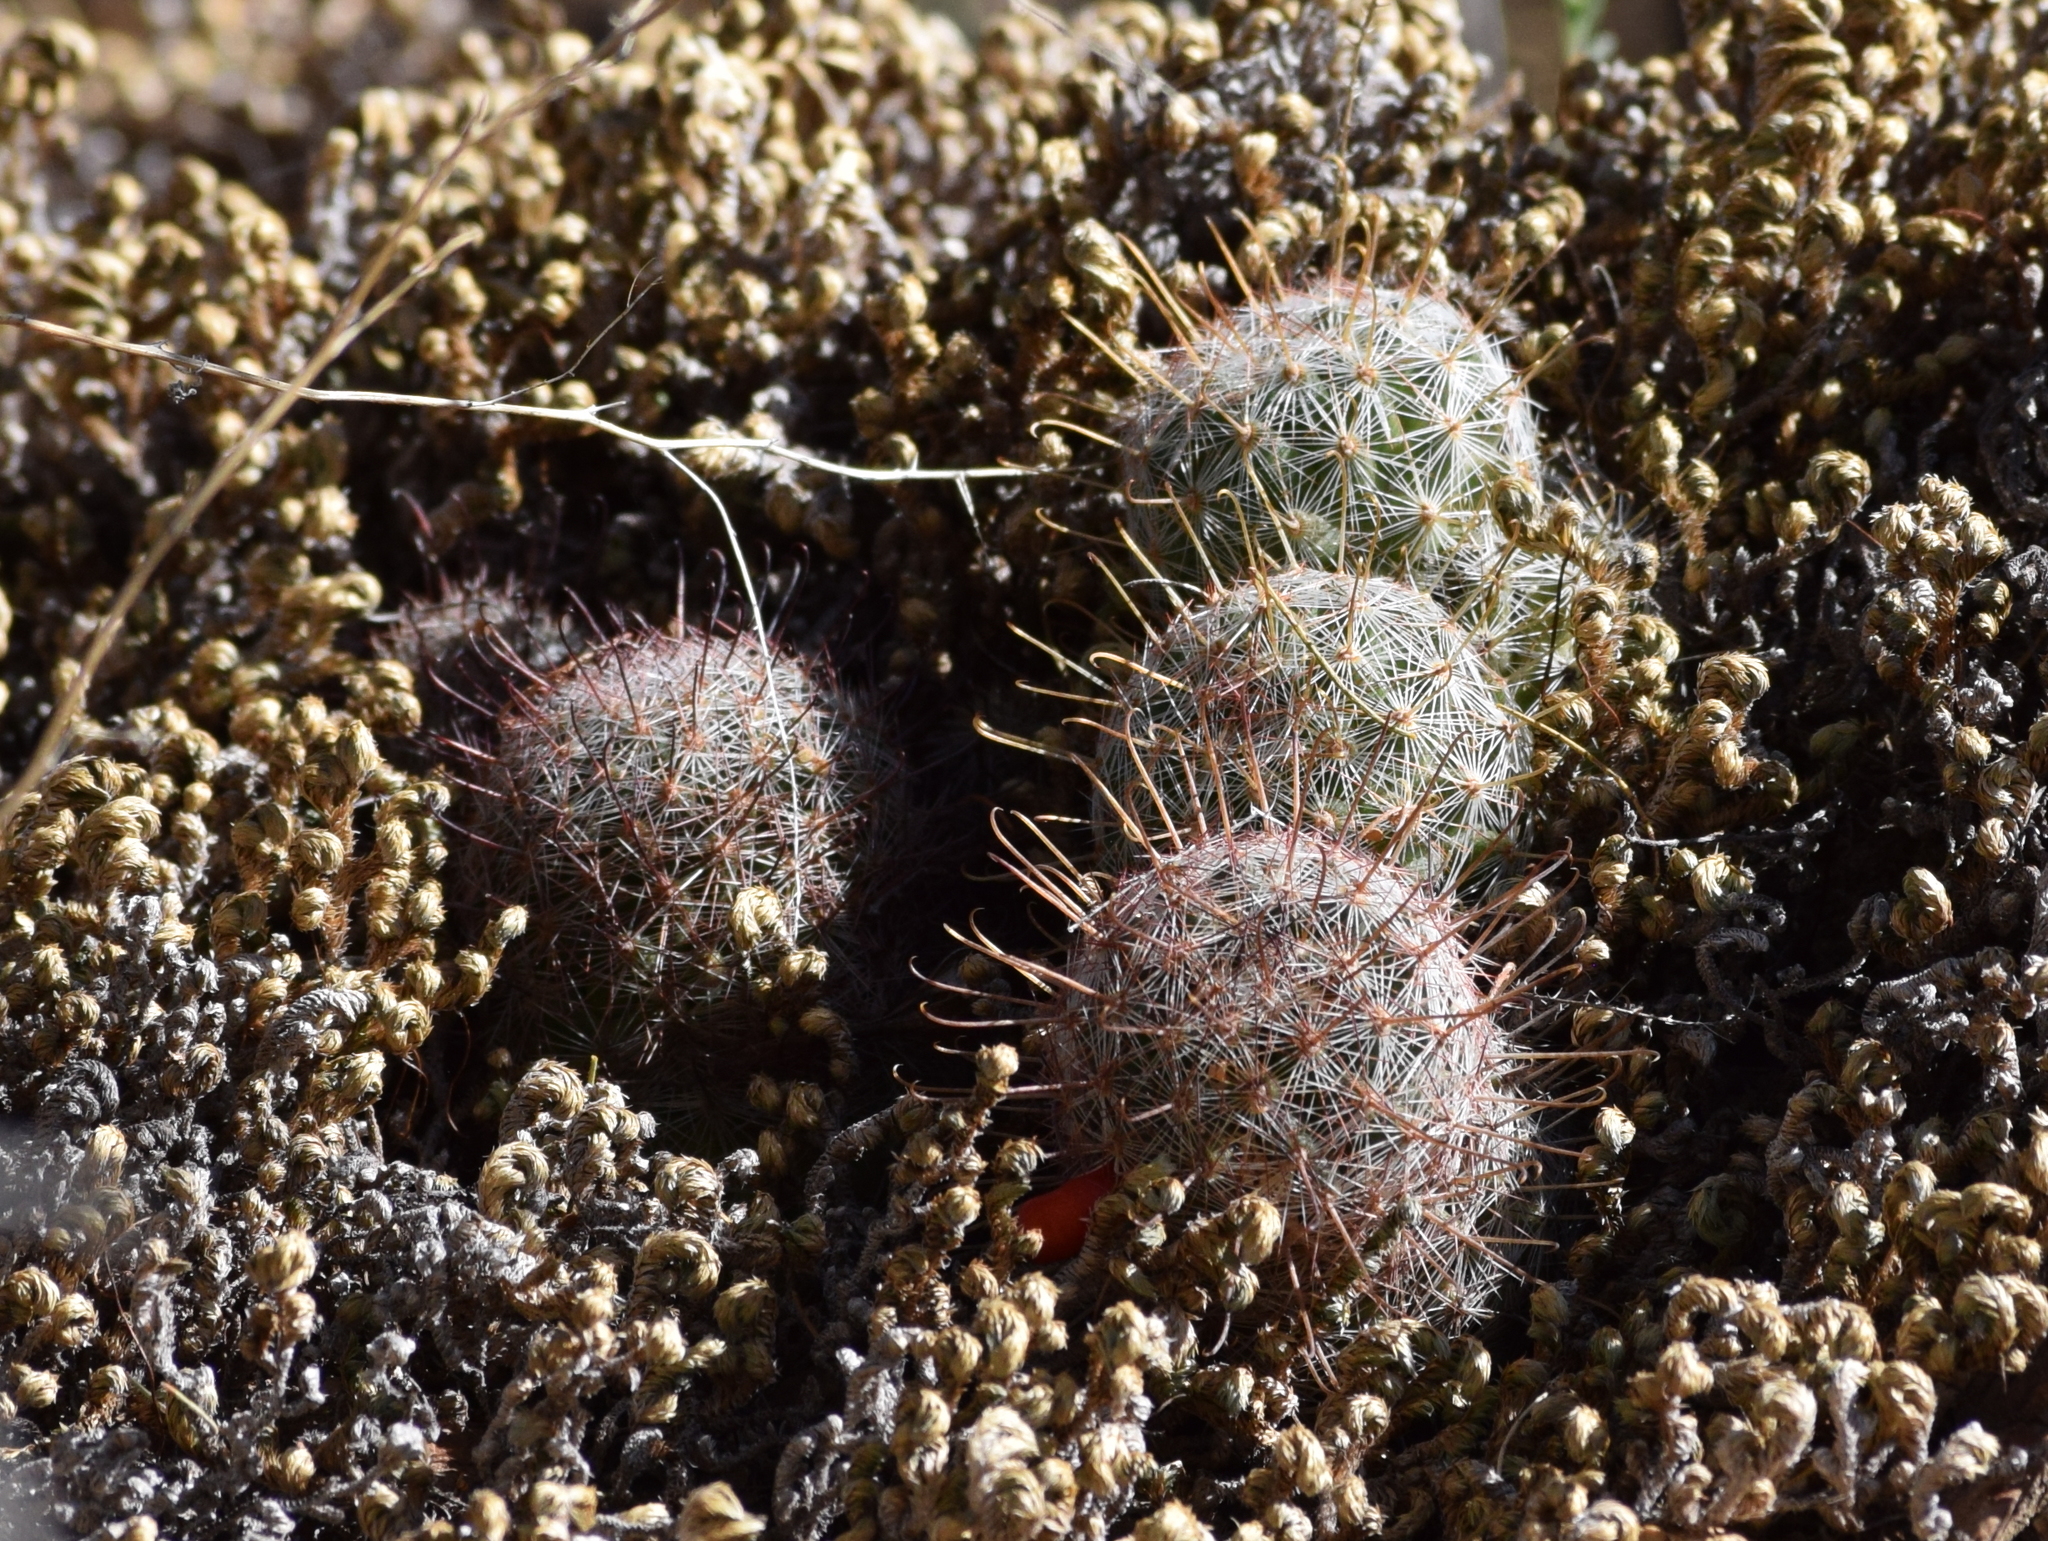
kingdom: Plantae
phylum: Tracheophyta
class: Magnoliopsida
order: Caryophyllales
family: Cactaceae
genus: Cochemiea
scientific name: Cochemiea grahamii
